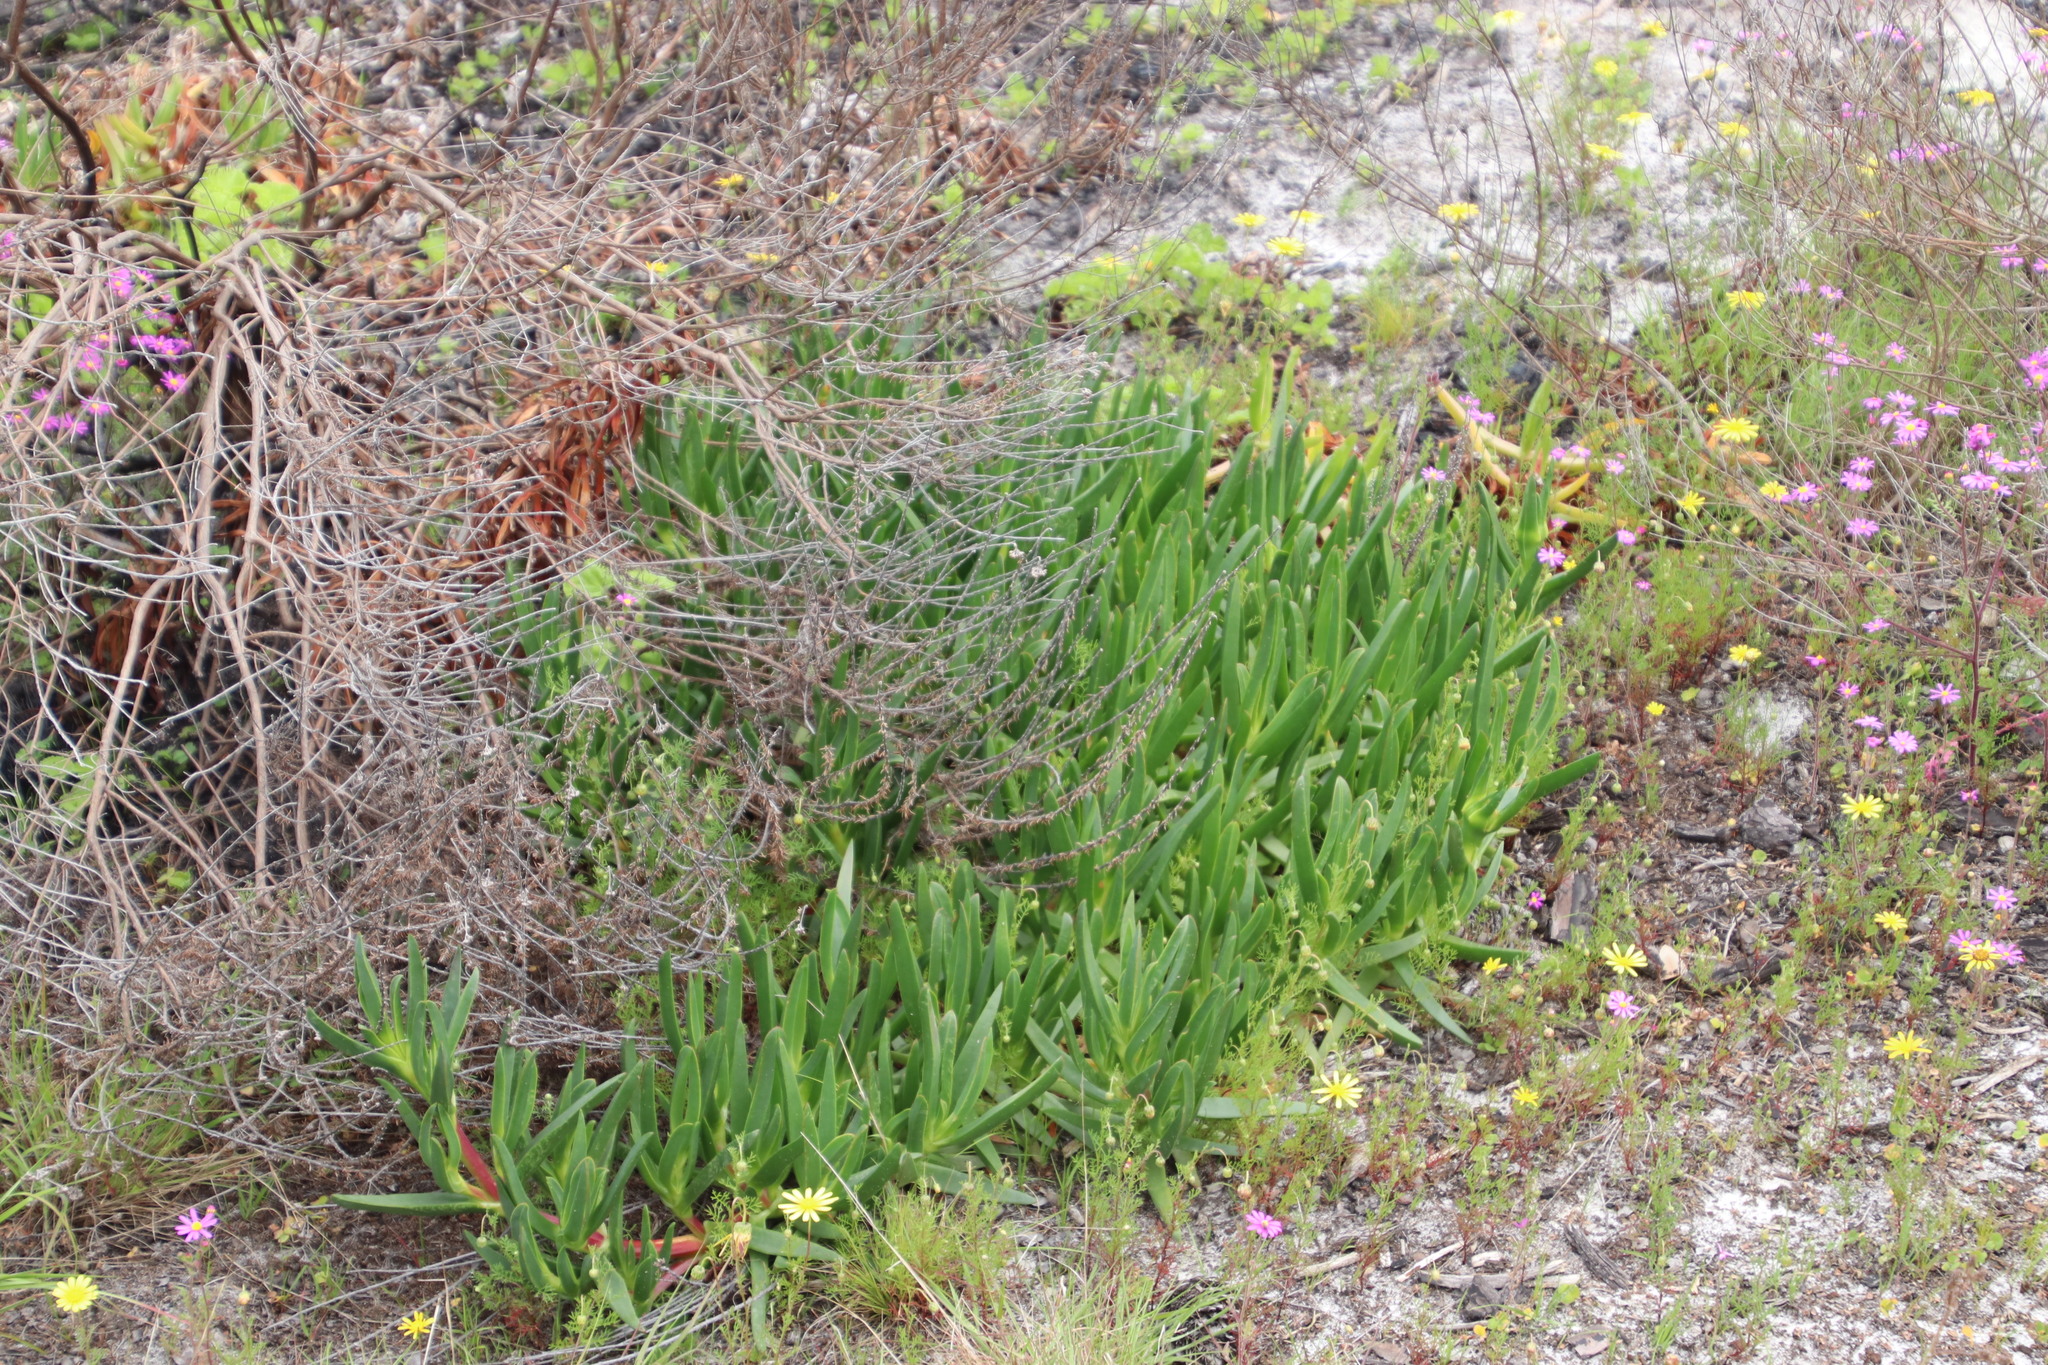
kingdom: Plantae
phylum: Tracheophyta
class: Magnoliopsida
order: Caryophyllales
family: Aizoaceae
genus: Carpobrotus
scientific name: Carpobrotus edulis
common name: Hottentot-fig
